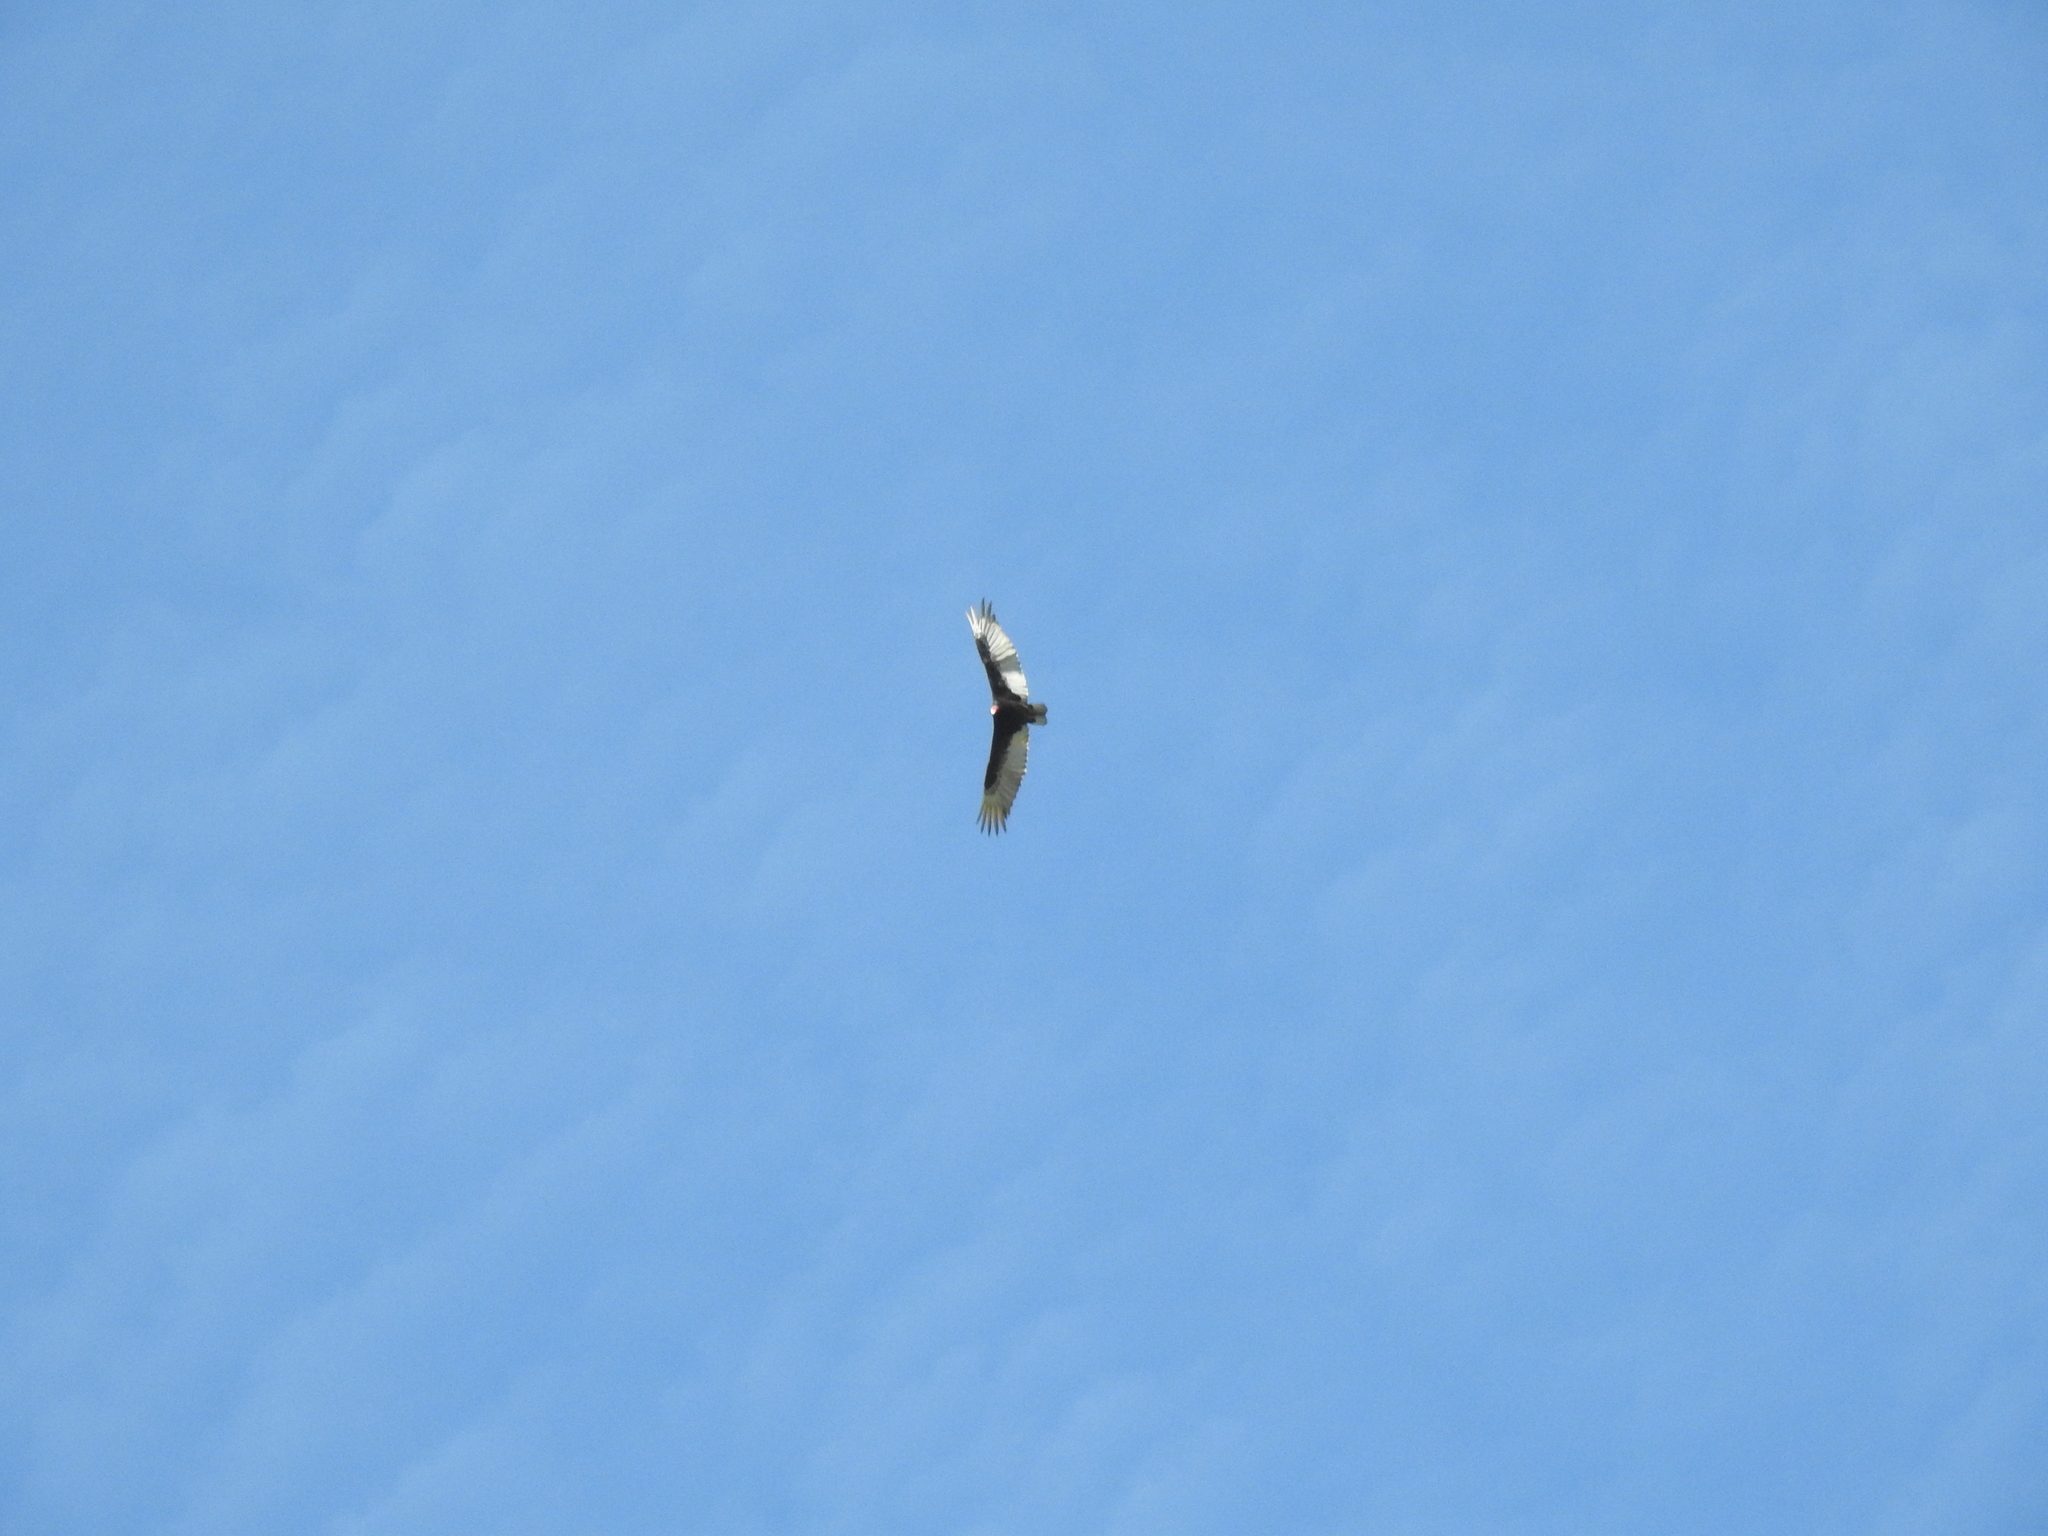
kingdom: Animalia
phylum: Chordata
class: Aves
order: Accipitriformes
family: Cathartidae
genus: Cathartes
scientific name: Cathartes aura
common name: Turkey vulture
